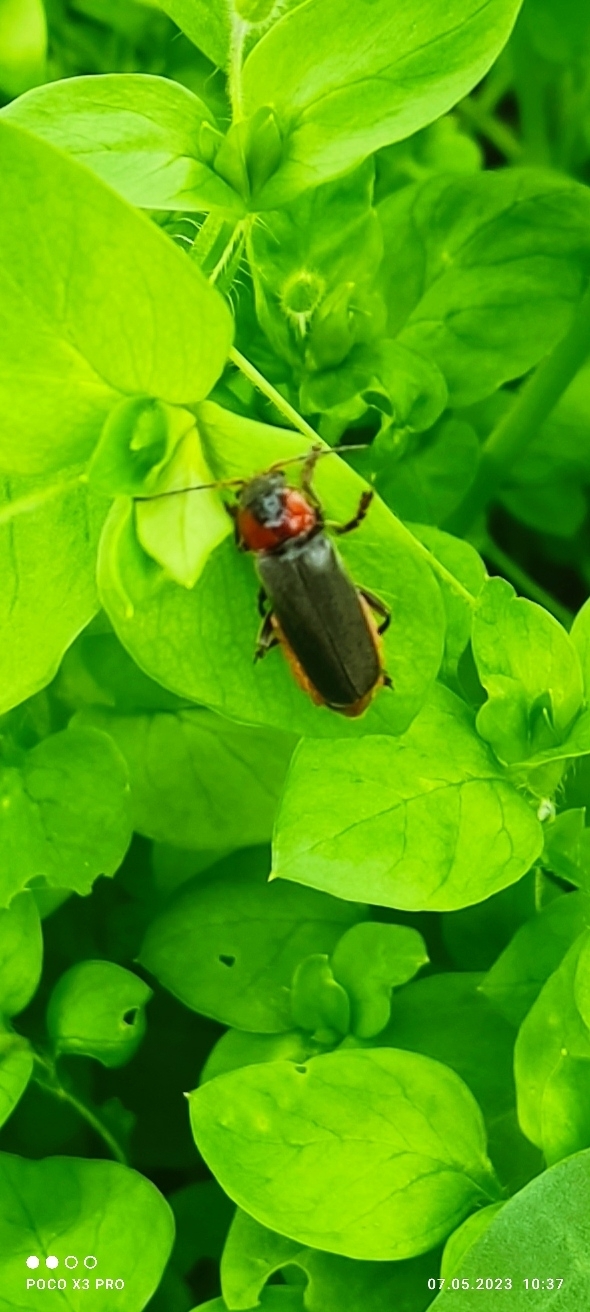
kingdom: Animalia
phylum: Arthropoda
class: Insecta
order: Coleoptera
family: Cantharidae
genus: Cantharis
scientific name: Cantharis fusca
